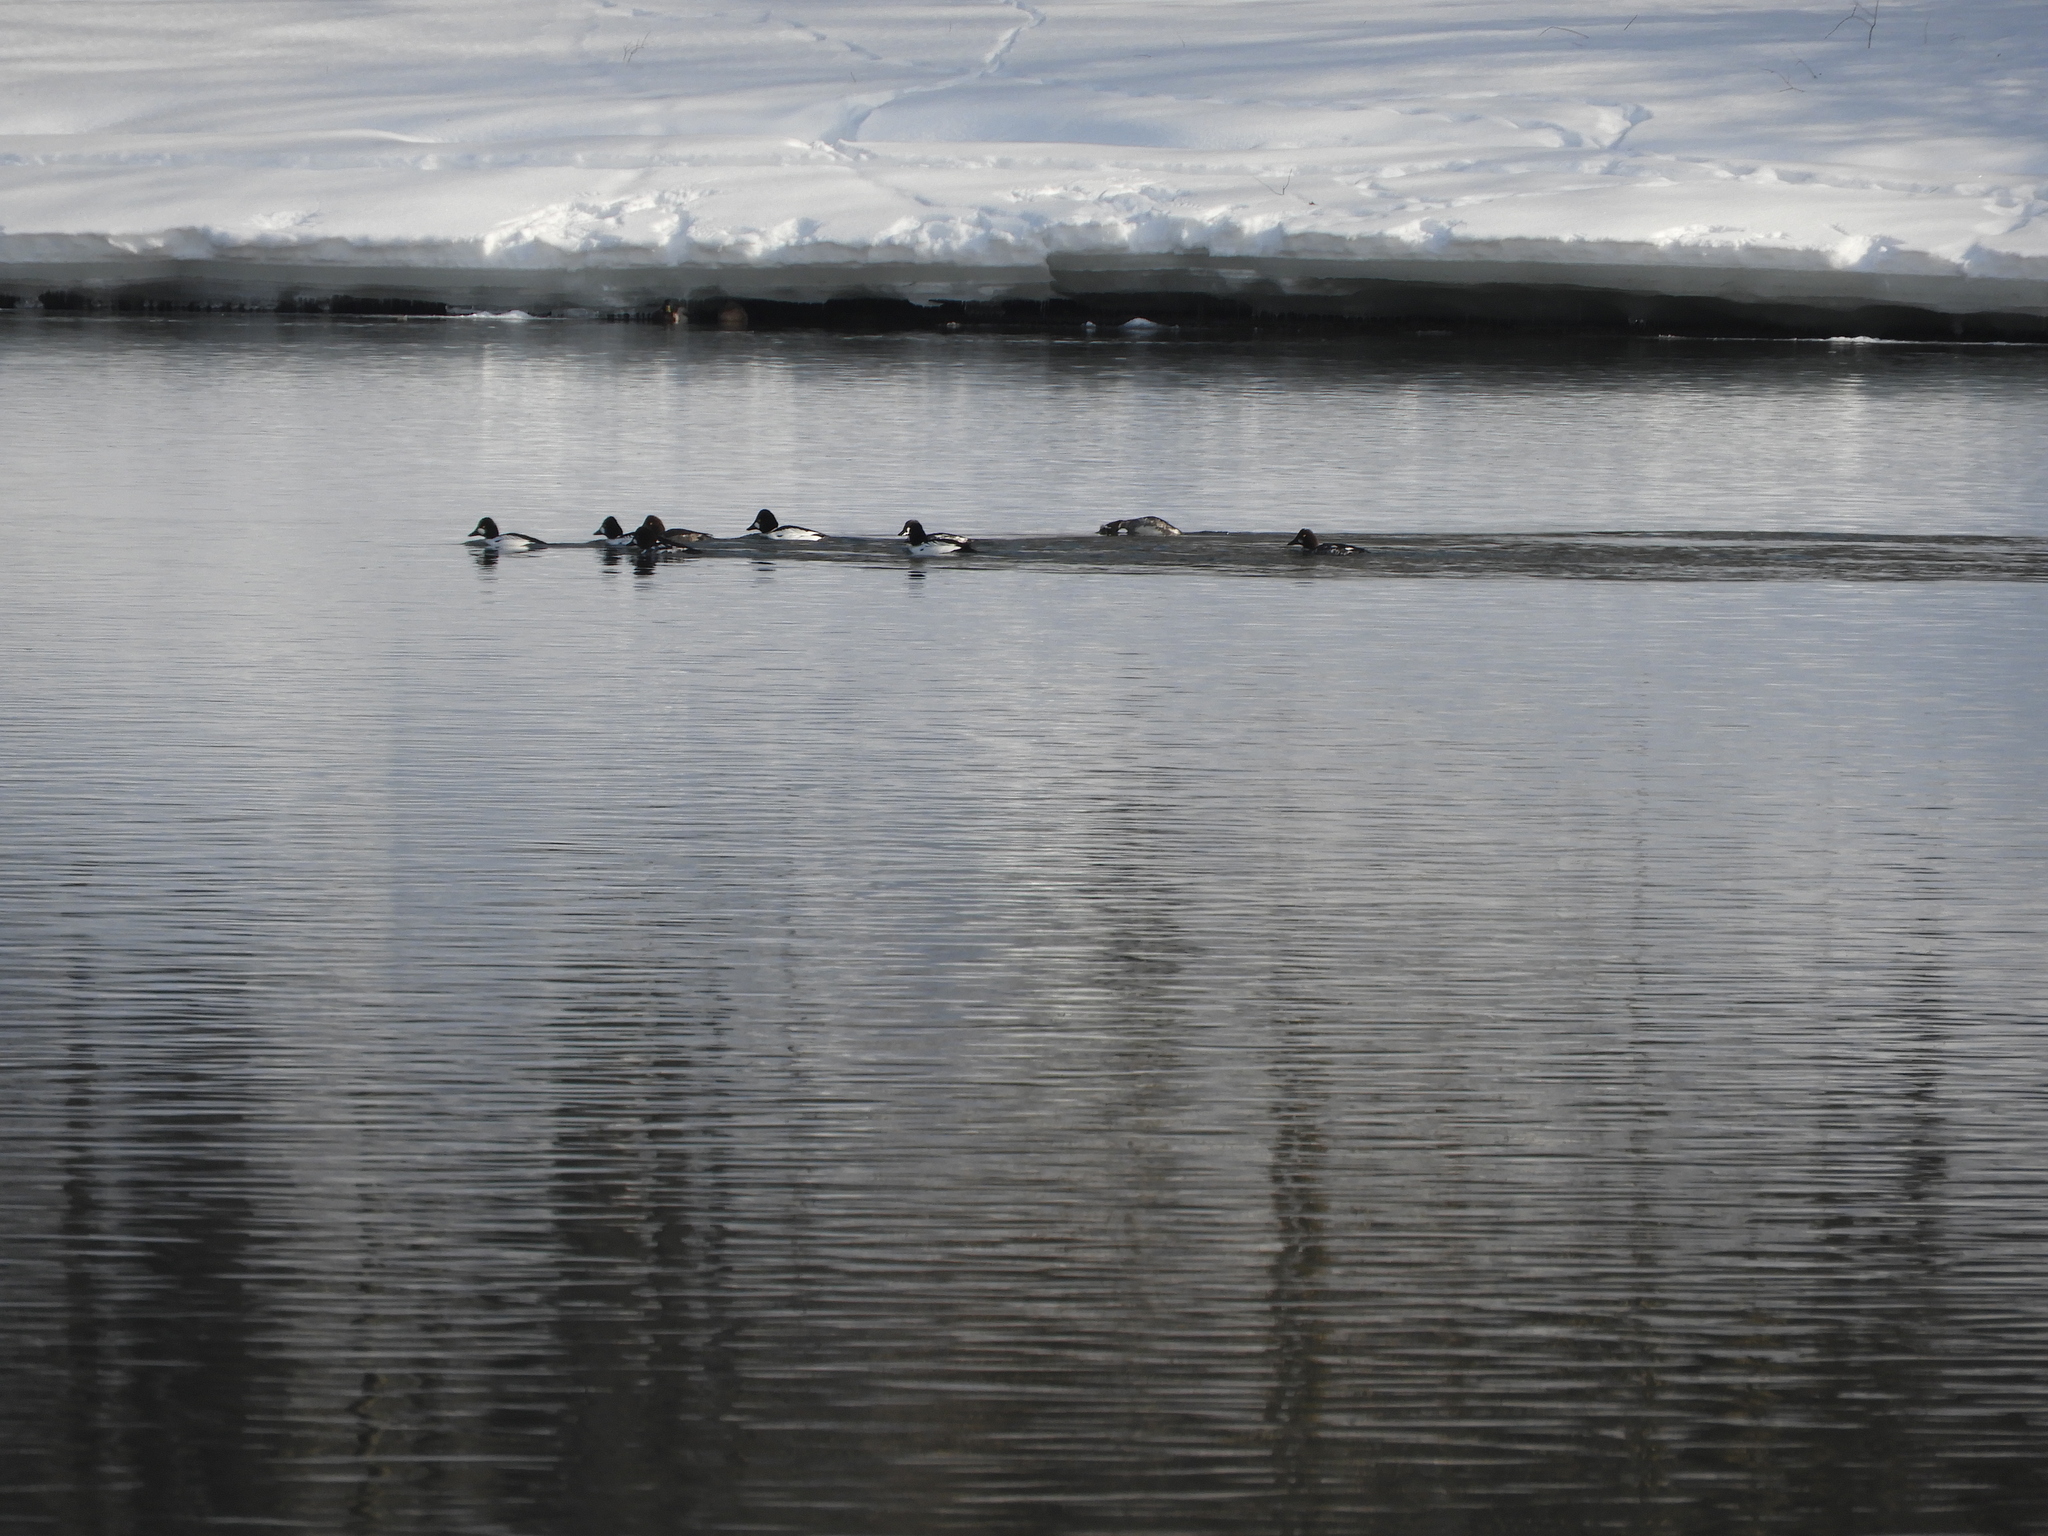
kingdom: Animalia
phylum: Chordata
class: Aves
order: Anseriformes
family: Anatidae
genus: Bucephala
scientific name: Bucephala clangula
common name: Common goldeneye
